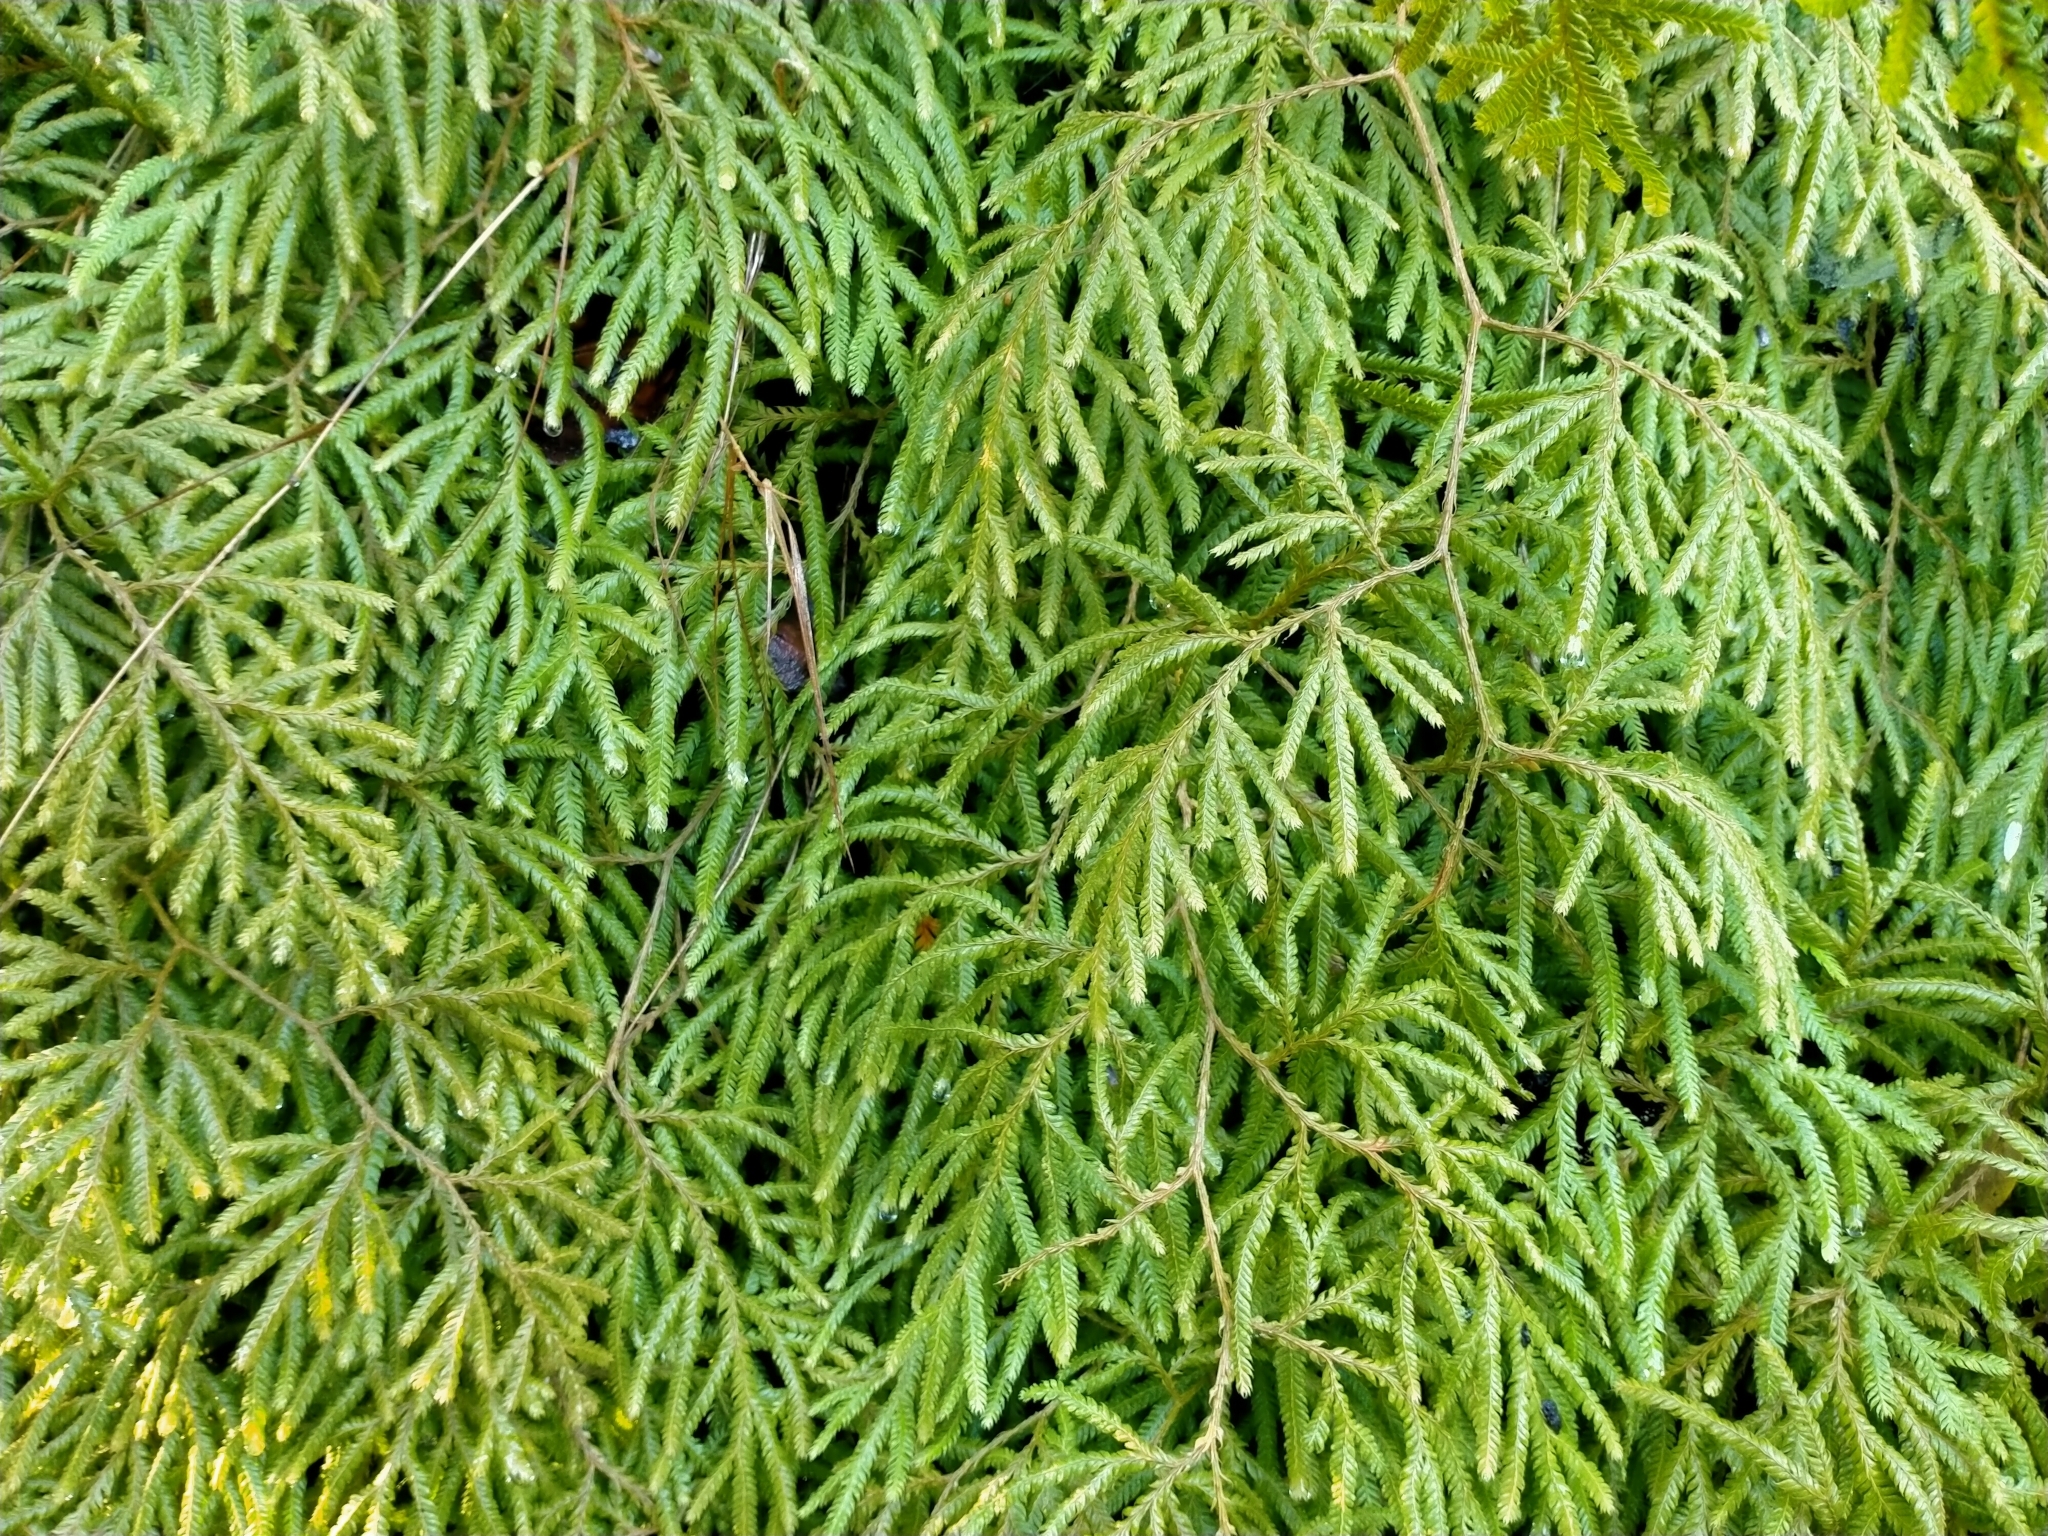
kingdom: Plantae
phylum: Tracheophyta
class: Lycopodiopsida
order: Lycopodiales
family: Lycopodiaceae
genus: Lycopodium
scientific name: Lycopodium volubile
